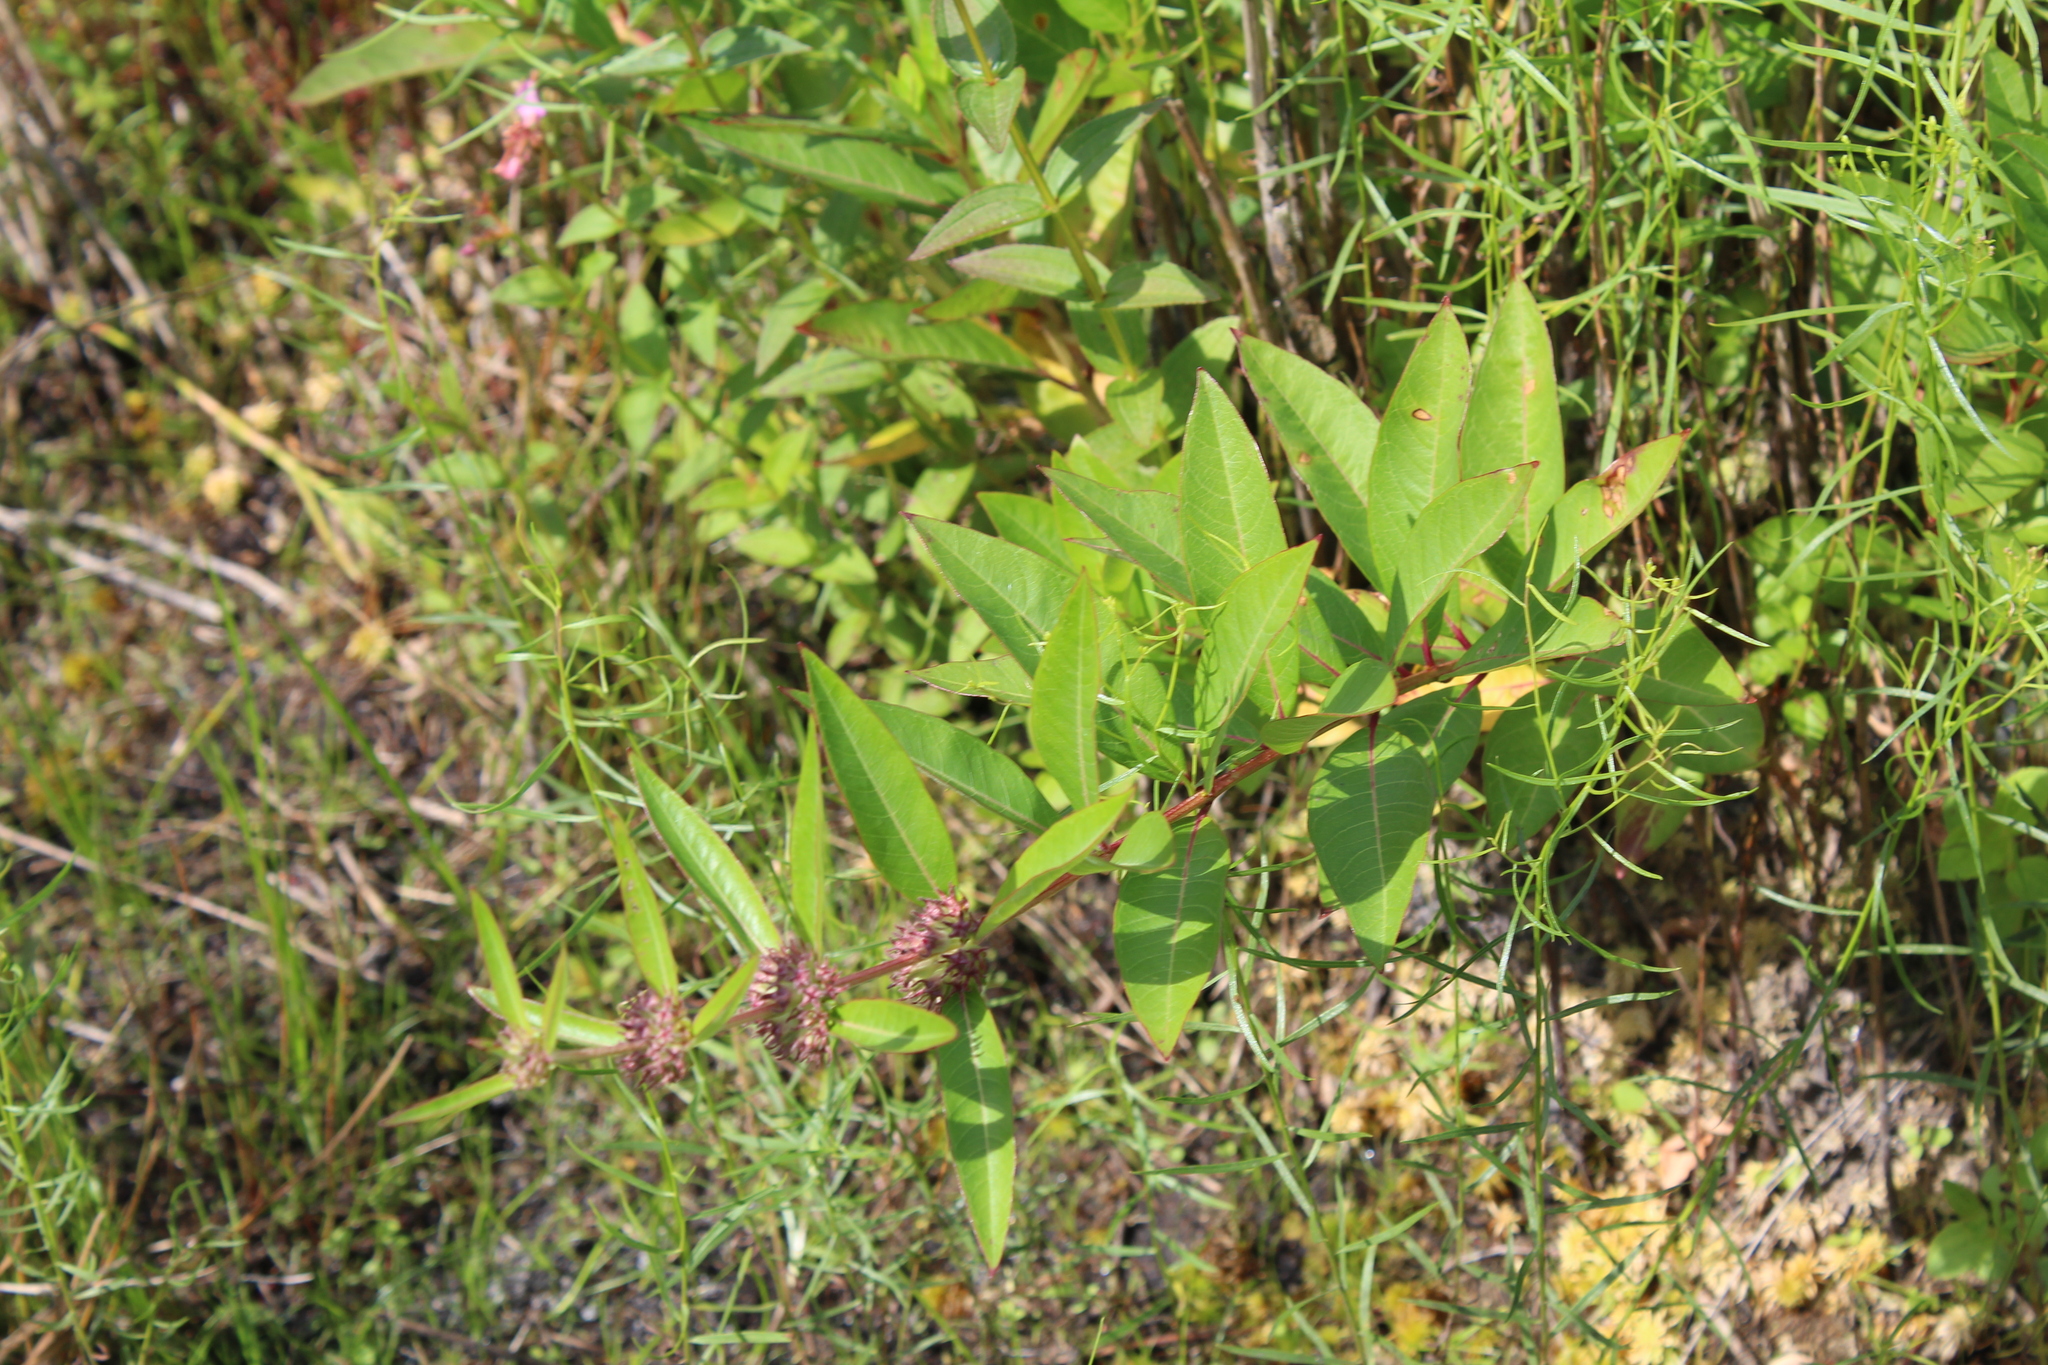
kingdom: Plantae
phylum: Tracheophyta
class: Magnoliopsida
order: Myrtales
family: Lythraceae
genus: Decodon
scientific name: Decodon verticillatus
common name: Hairy swamp loosestrife
